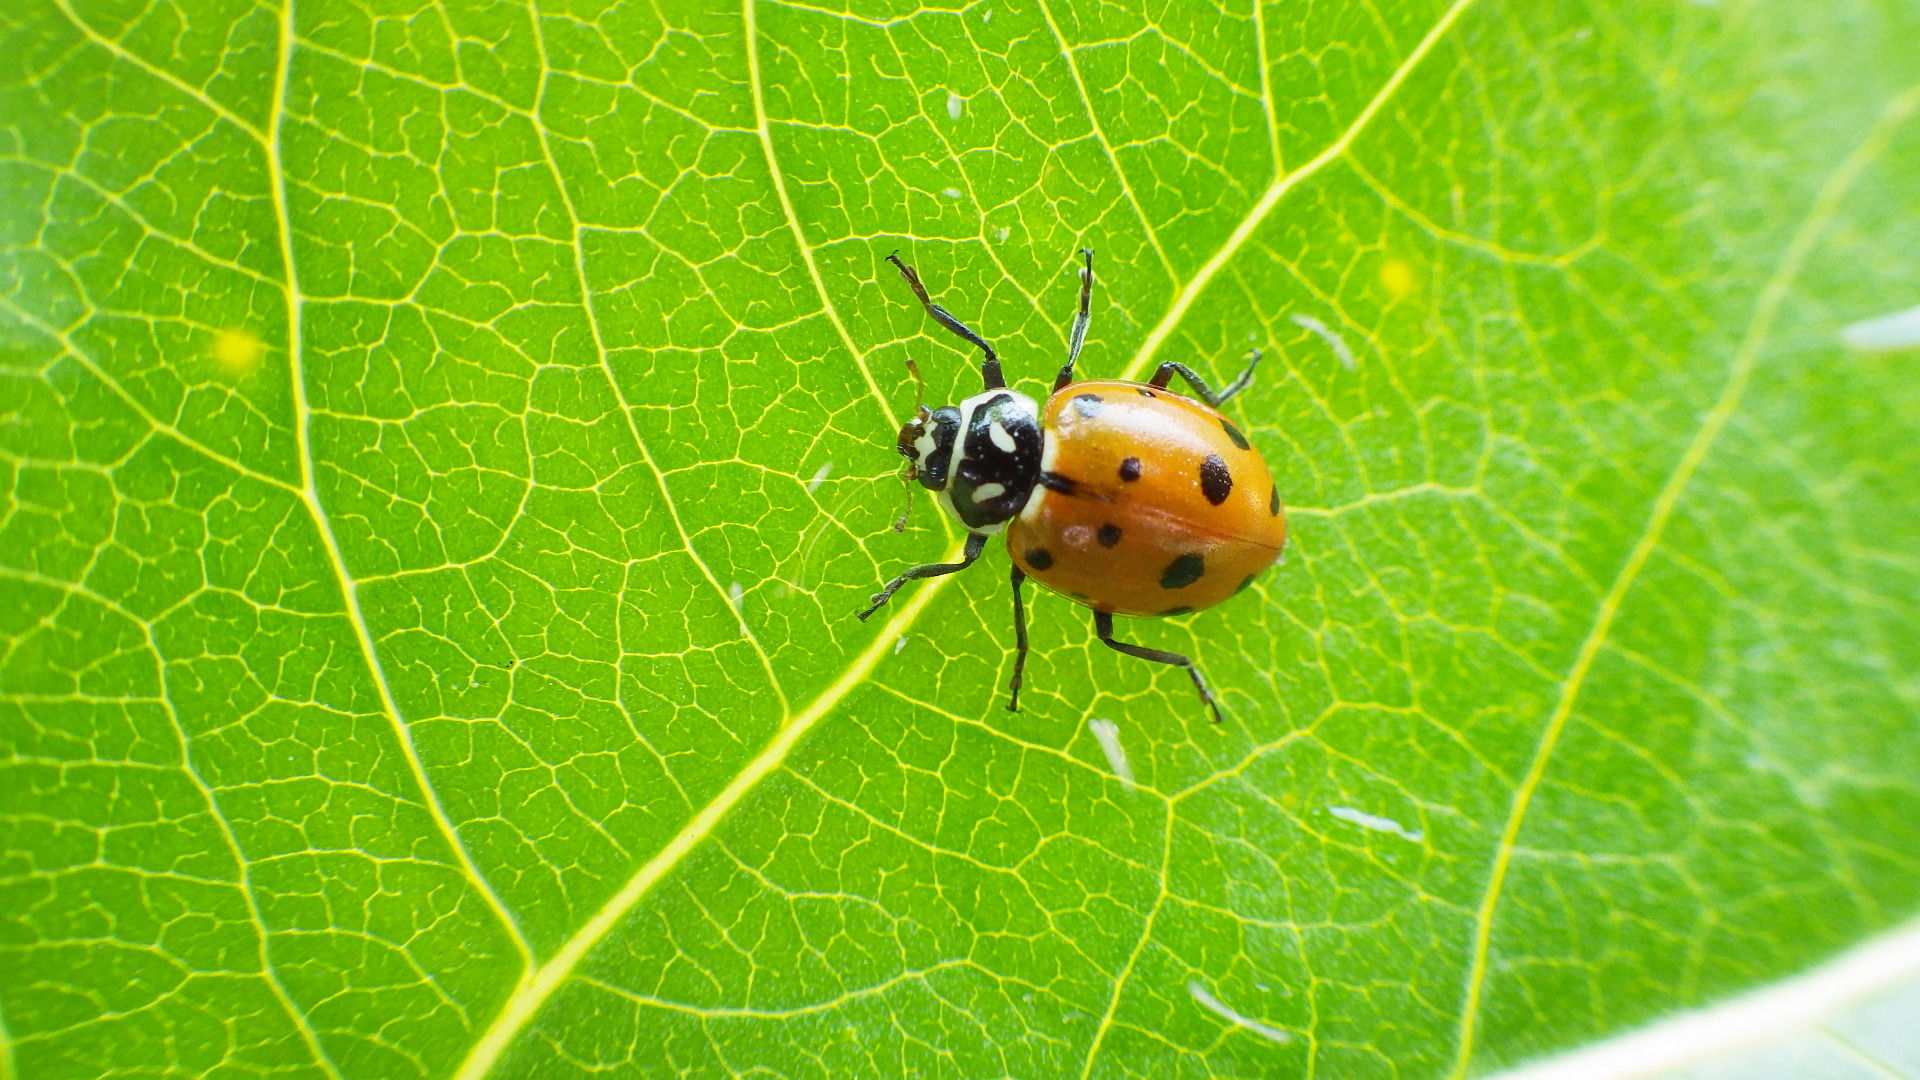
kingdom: Animalia
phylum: Arthropoda
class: Insecta
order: Coleoptera
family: Coccinellidae
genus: Hippodamia
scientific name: Hippodamia convergens
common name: Convergent lady beetle
